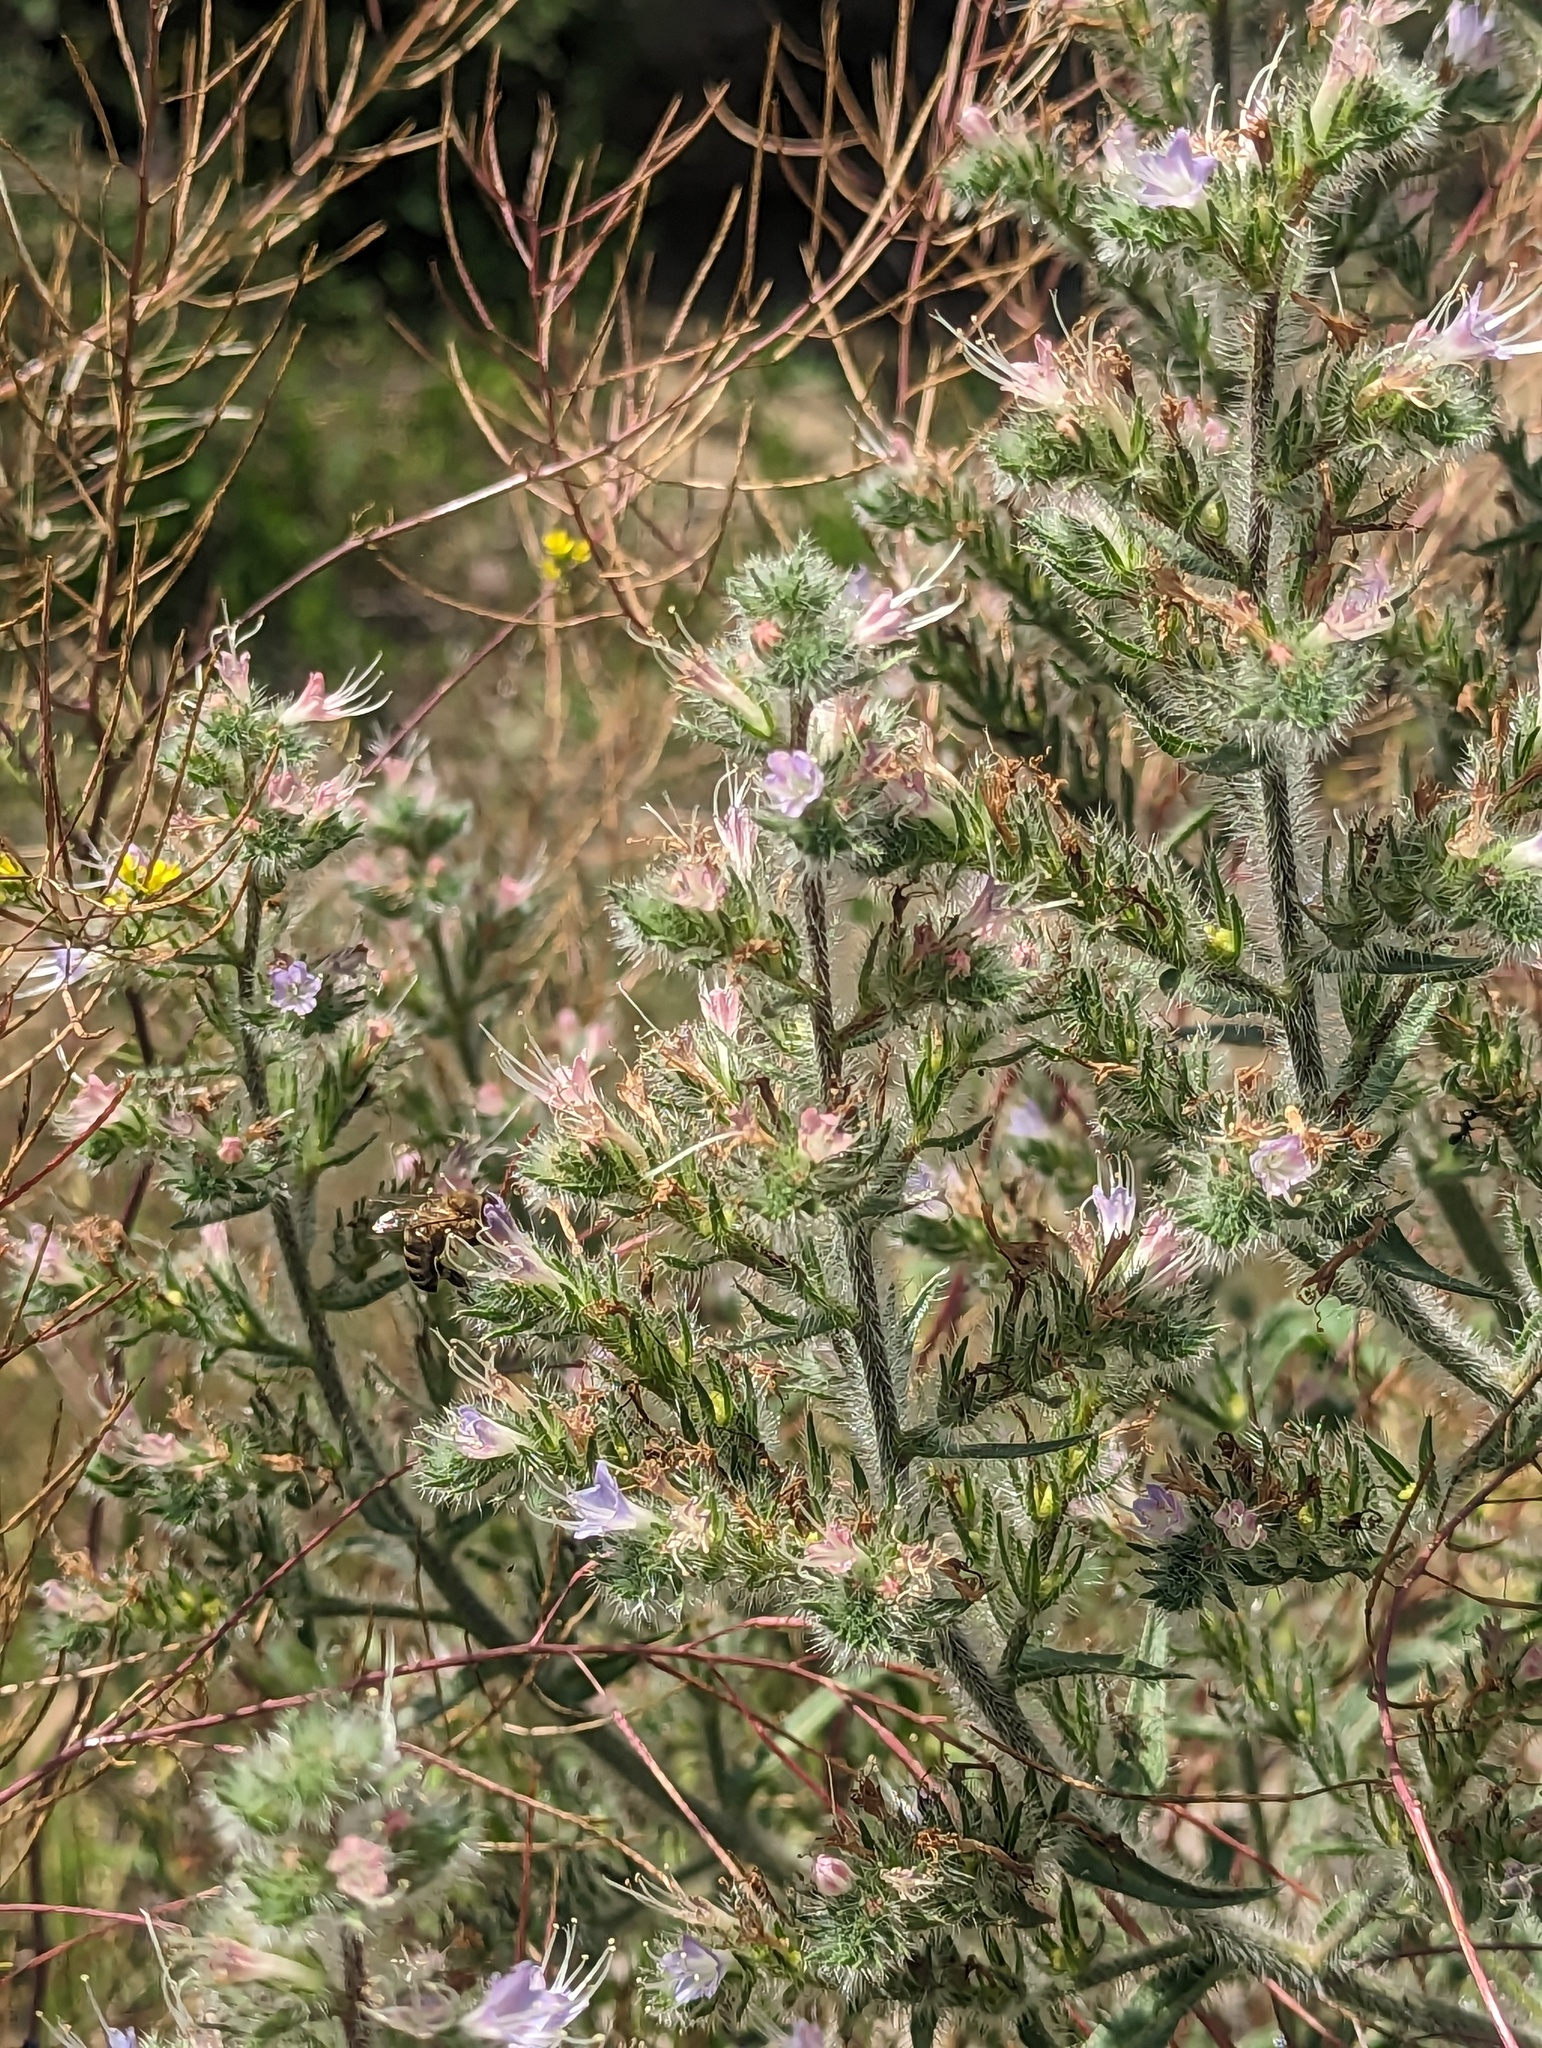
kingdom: Plantae
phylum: Tracheophyta
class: Magnoliopsida
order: Boraginales
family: Boraginaceae
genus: Echium
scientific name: Echium italicum
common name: Italian viper's bugloss
